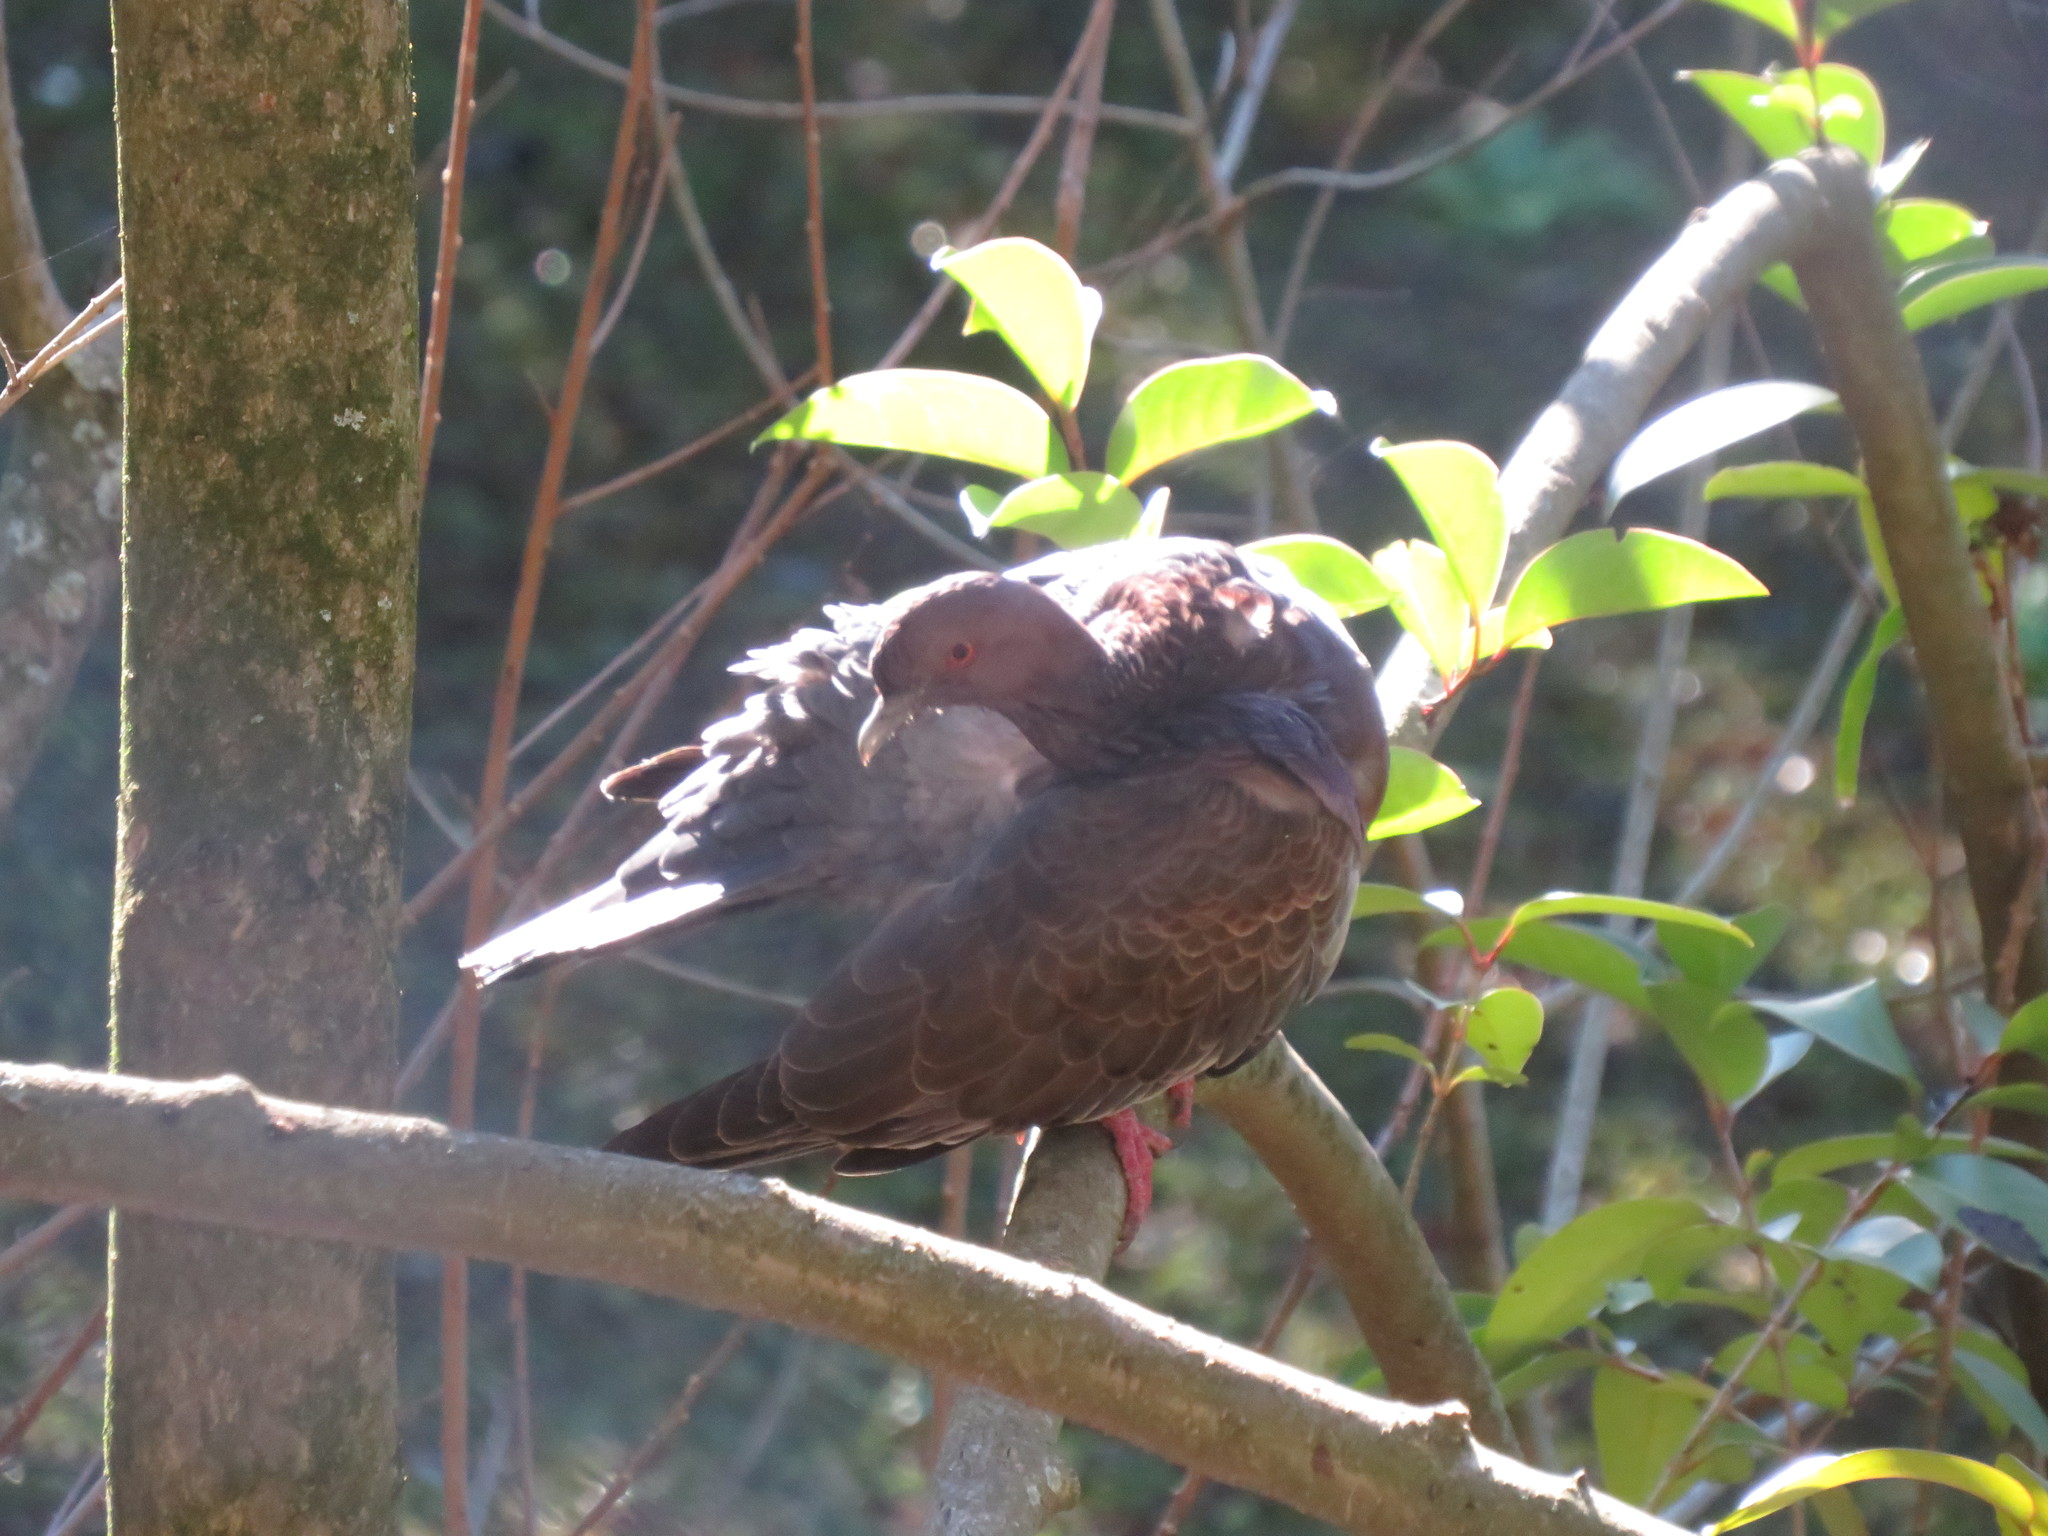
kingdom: Animalia
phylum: Chordata
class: Aves
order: Columbiformes
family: Columbidae
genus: Patagioenas
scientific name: Patagioenas picazuro
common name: Picazuro pigeon
